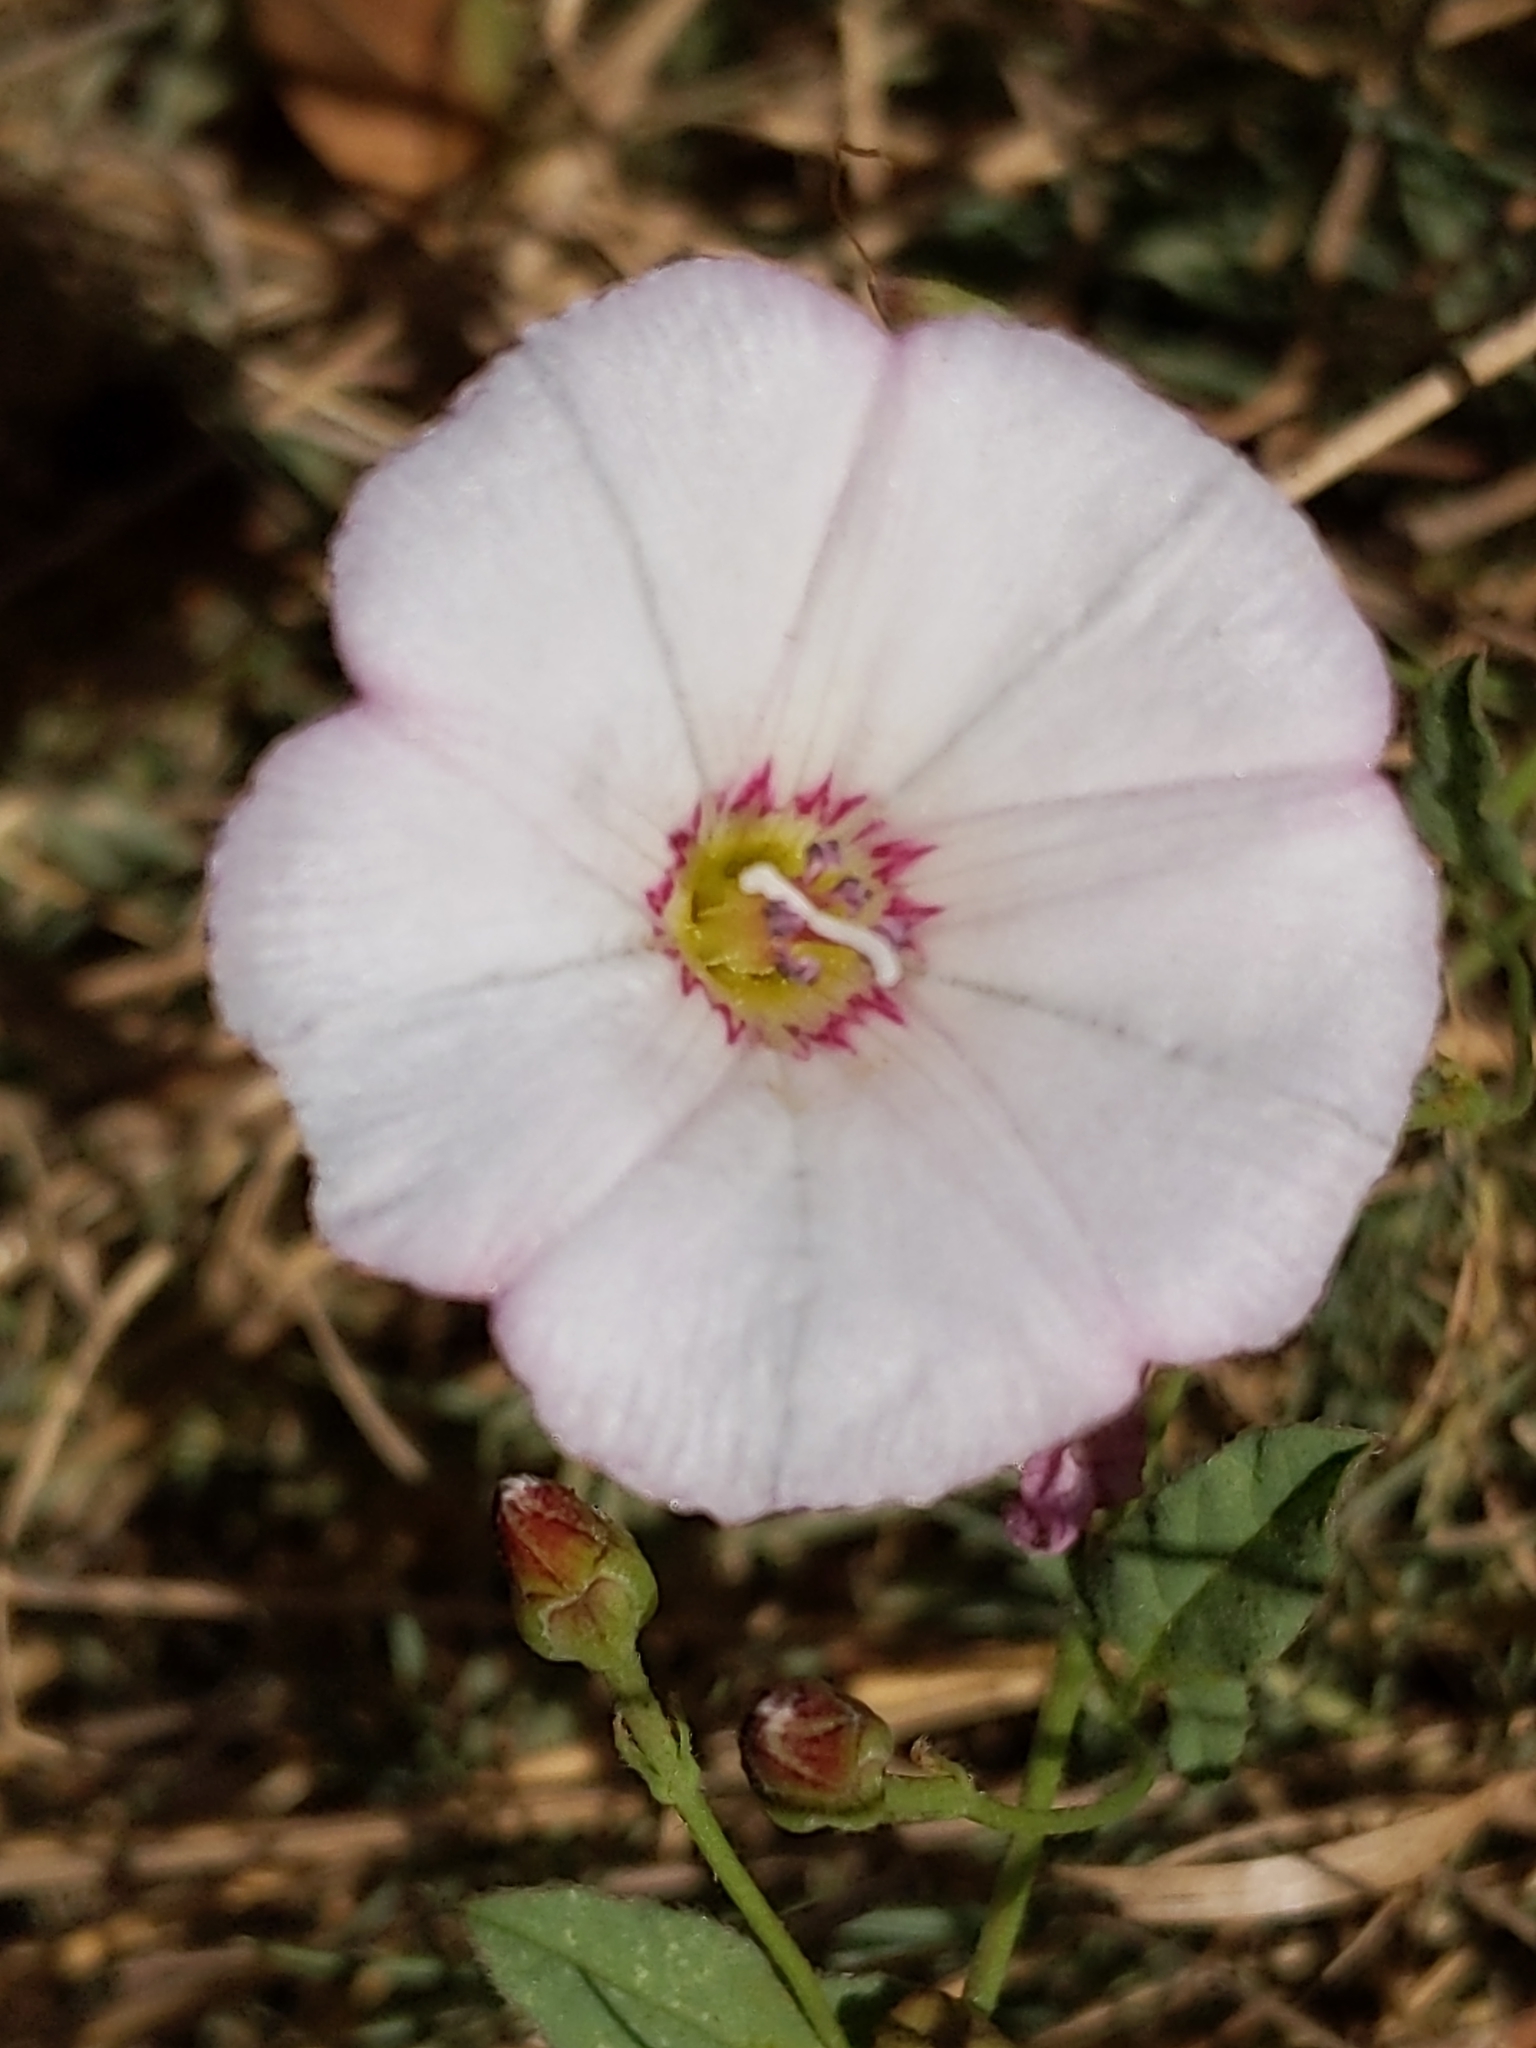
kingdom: Plantae
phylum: Tracheophyta
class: Magnoliopsida
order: Solanales
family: Convolvulaceae
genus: Convolvulus
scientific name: Convolvulus arvensis
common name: Field bindweed
